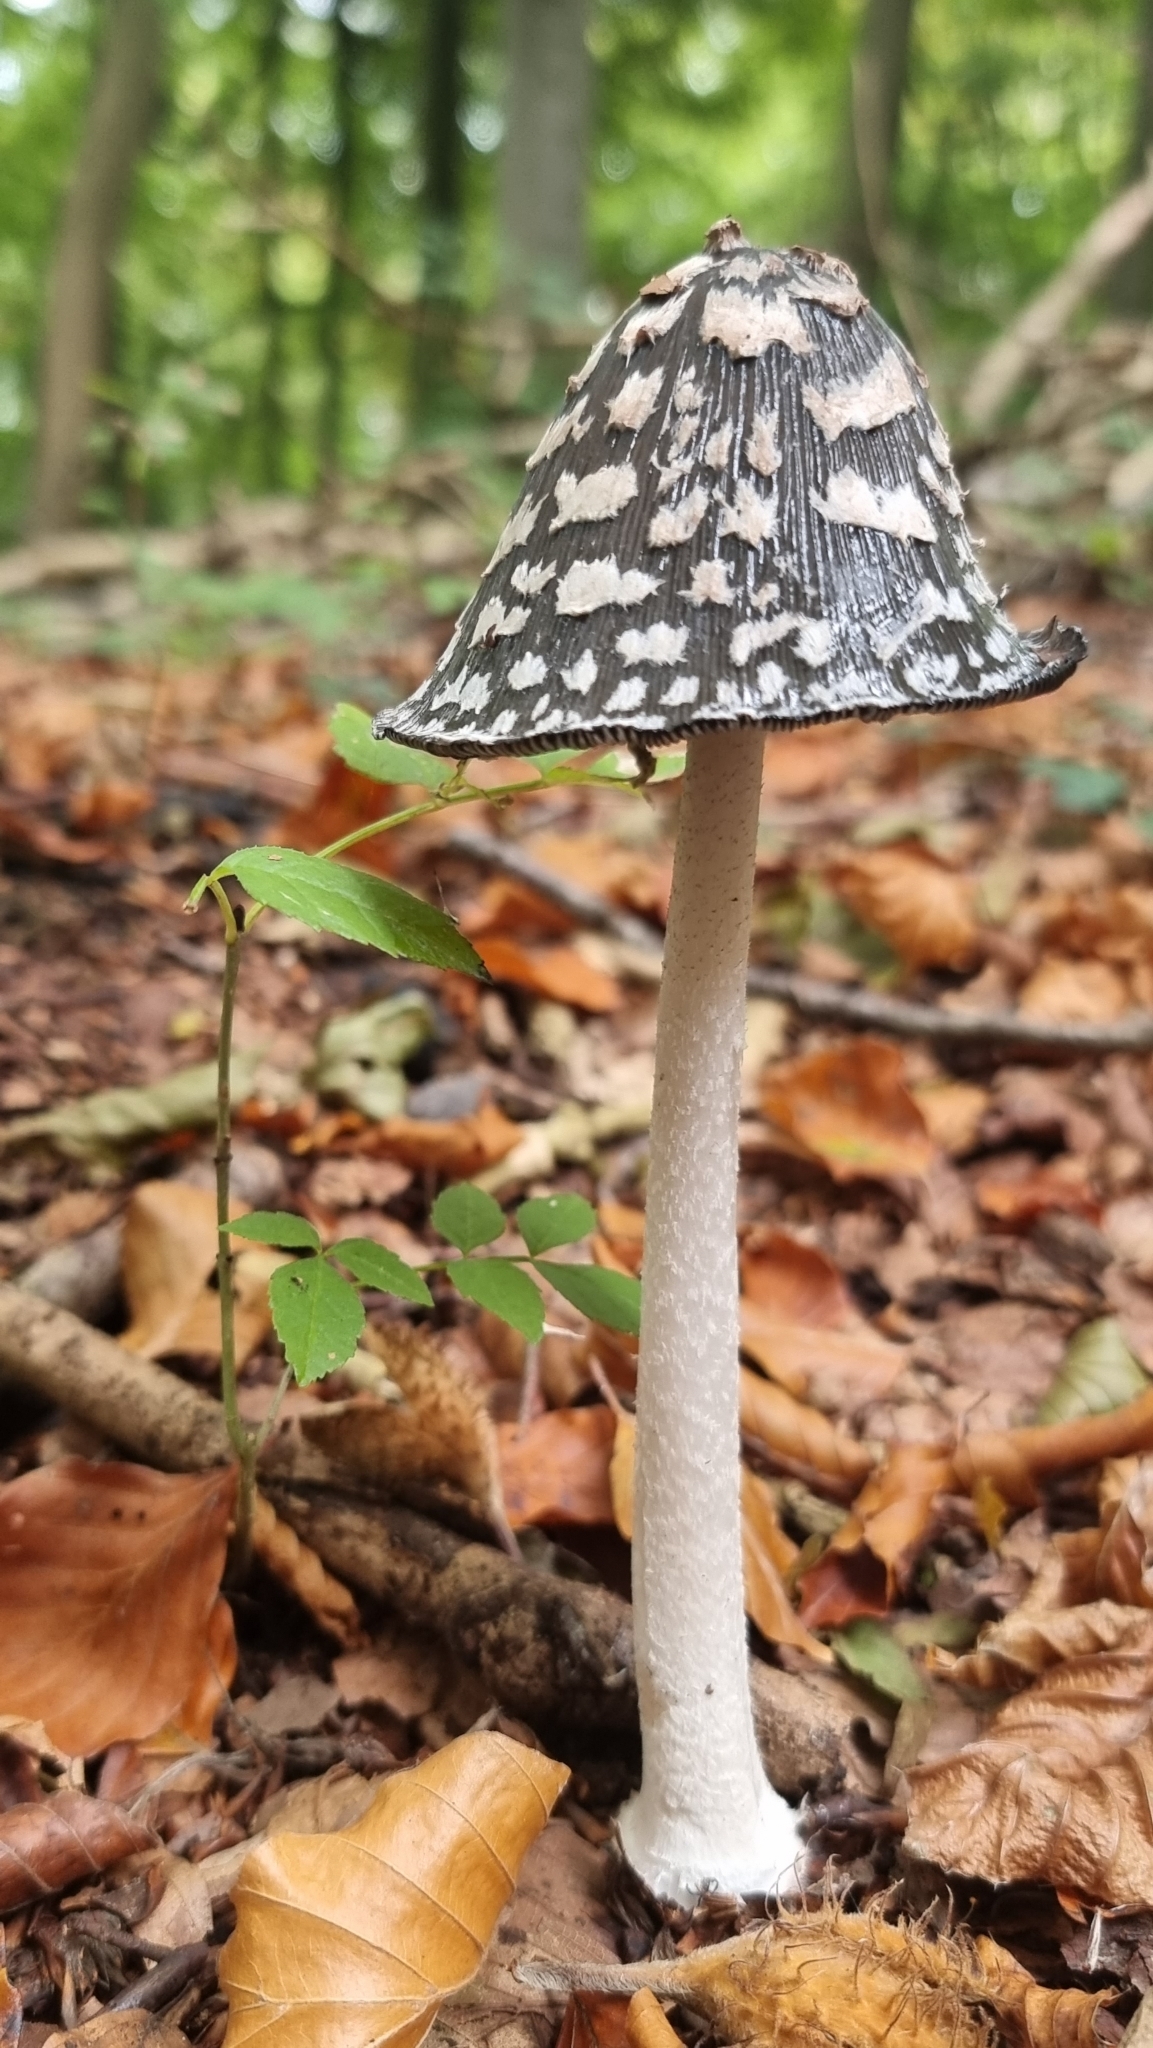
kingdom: Fungi
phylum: Basidiomycota
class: Agaricomycetes
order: Agaricales
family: Psathyrellaceae
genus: Coprinopsis
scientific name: Coprinopsis picacea
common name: Magpie inkcap
